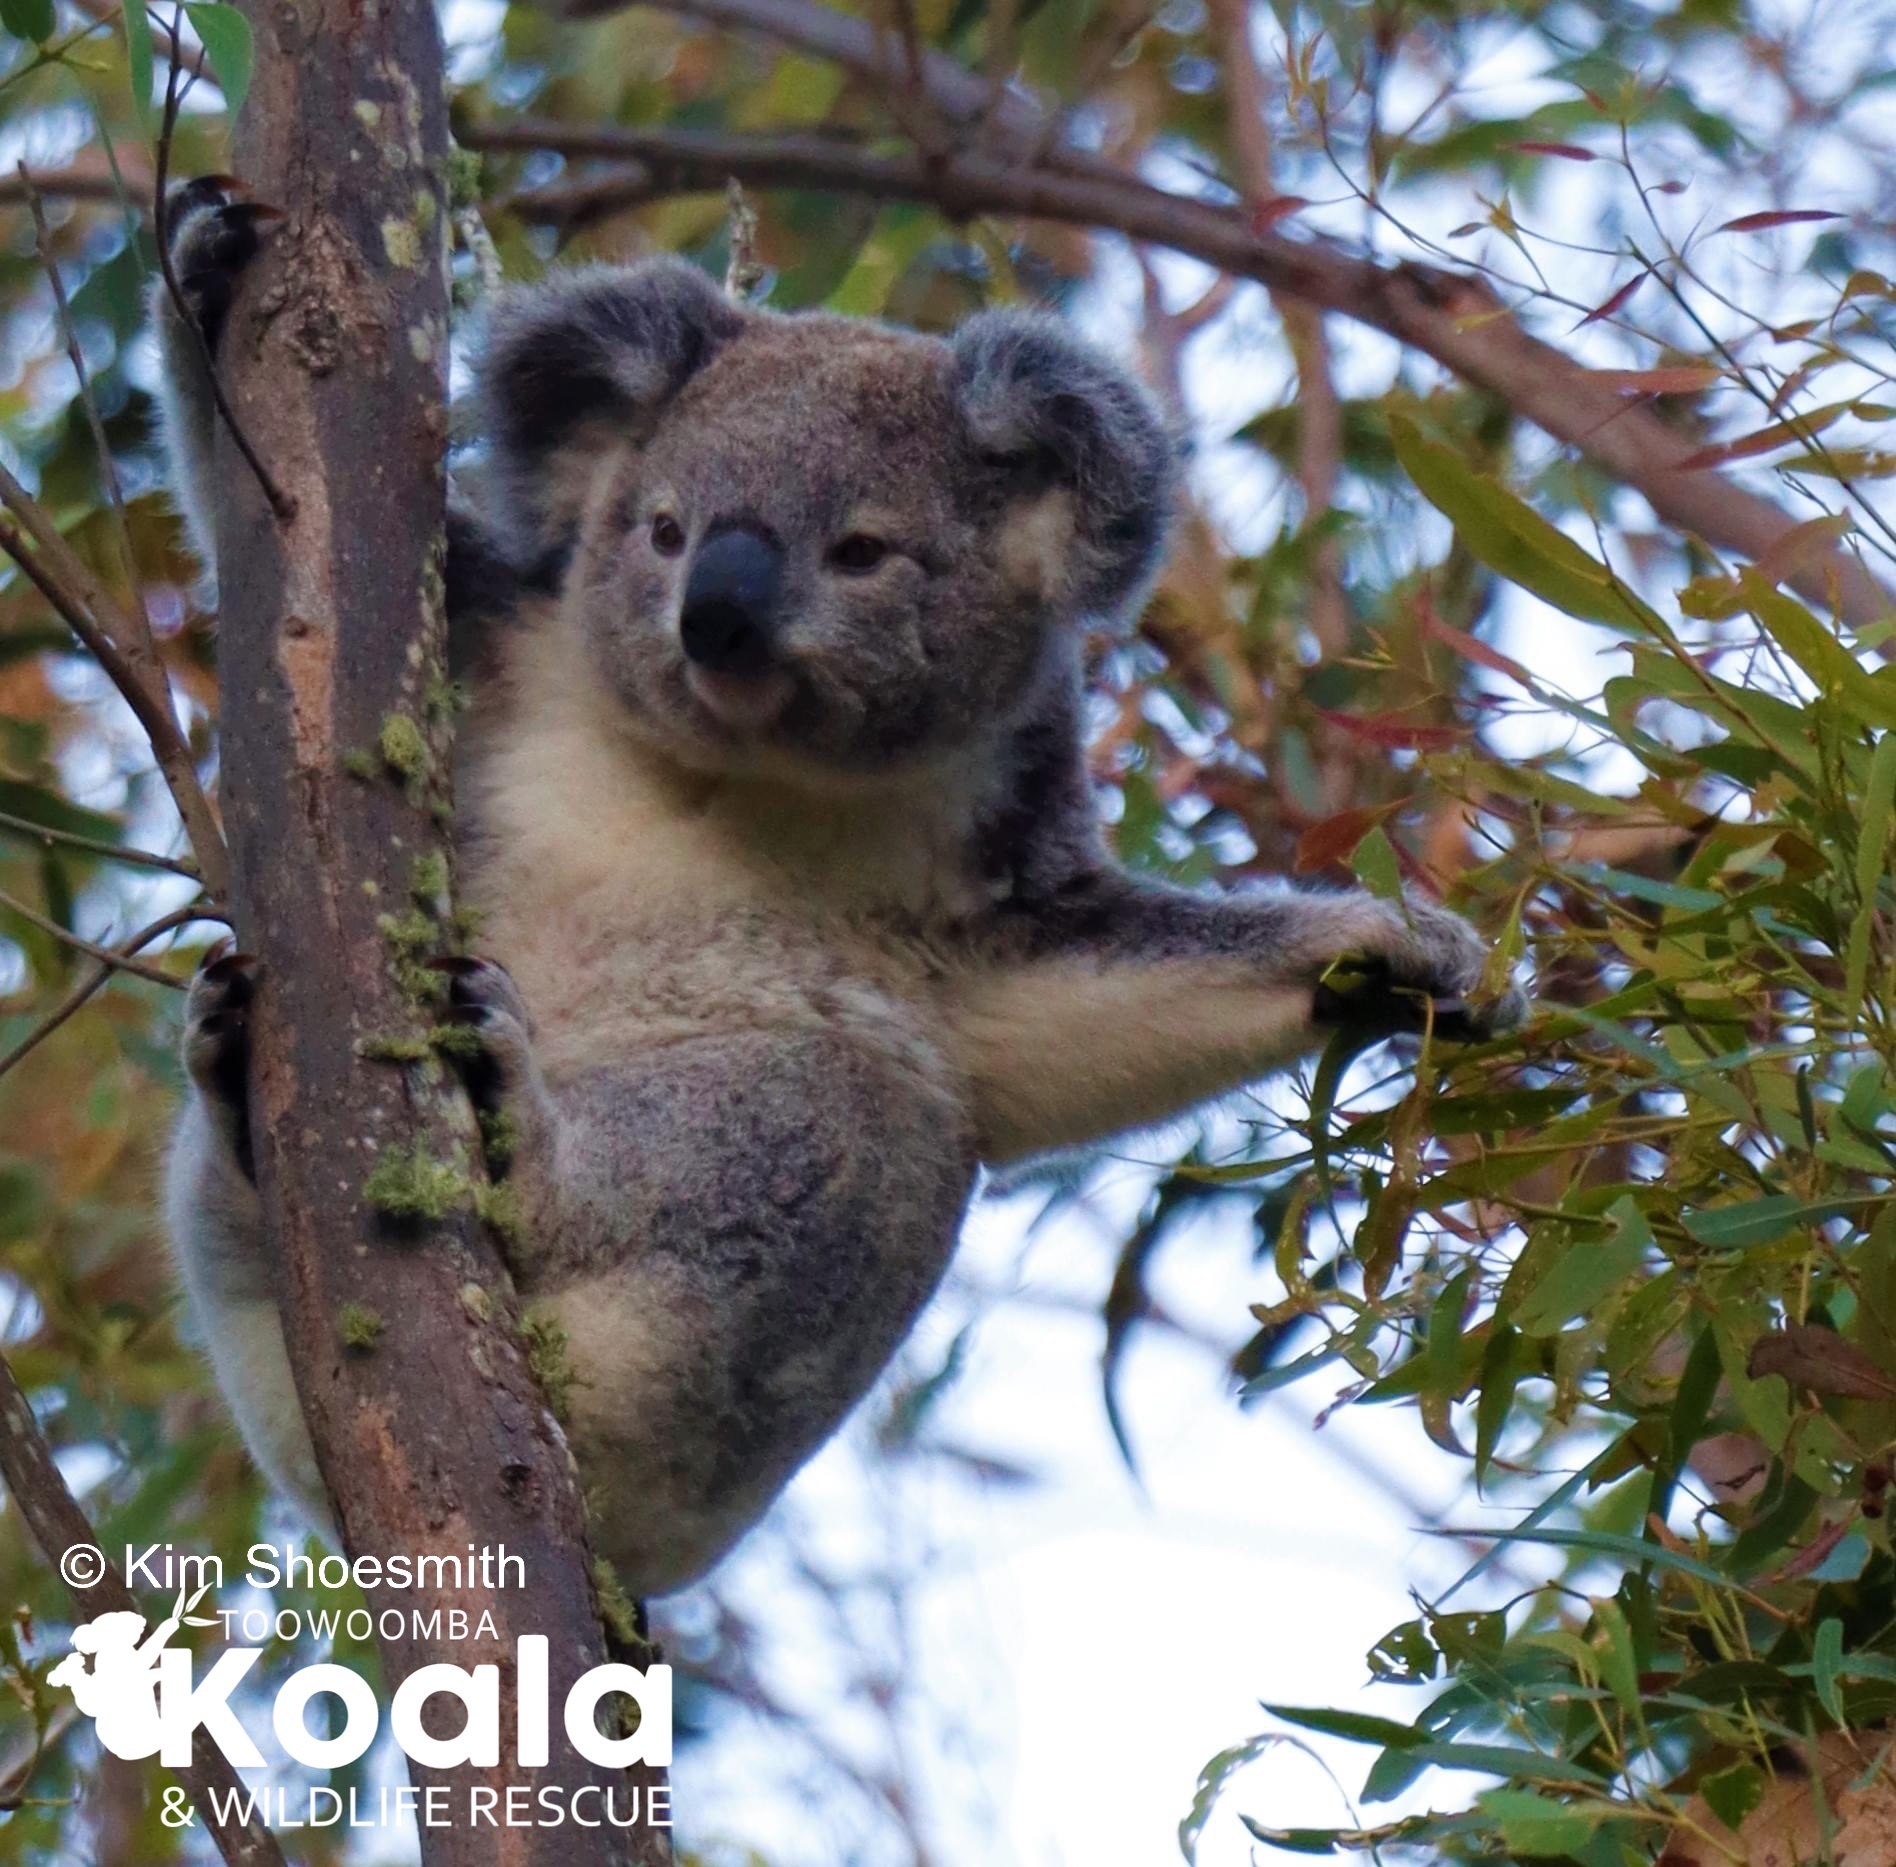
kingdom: Animalia
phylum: Chordata
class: Mammalia
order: Diprotodontia
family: Phascolarctidae
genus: Phascolarctos
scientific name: Phascolarctos cinereus
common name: Koala
